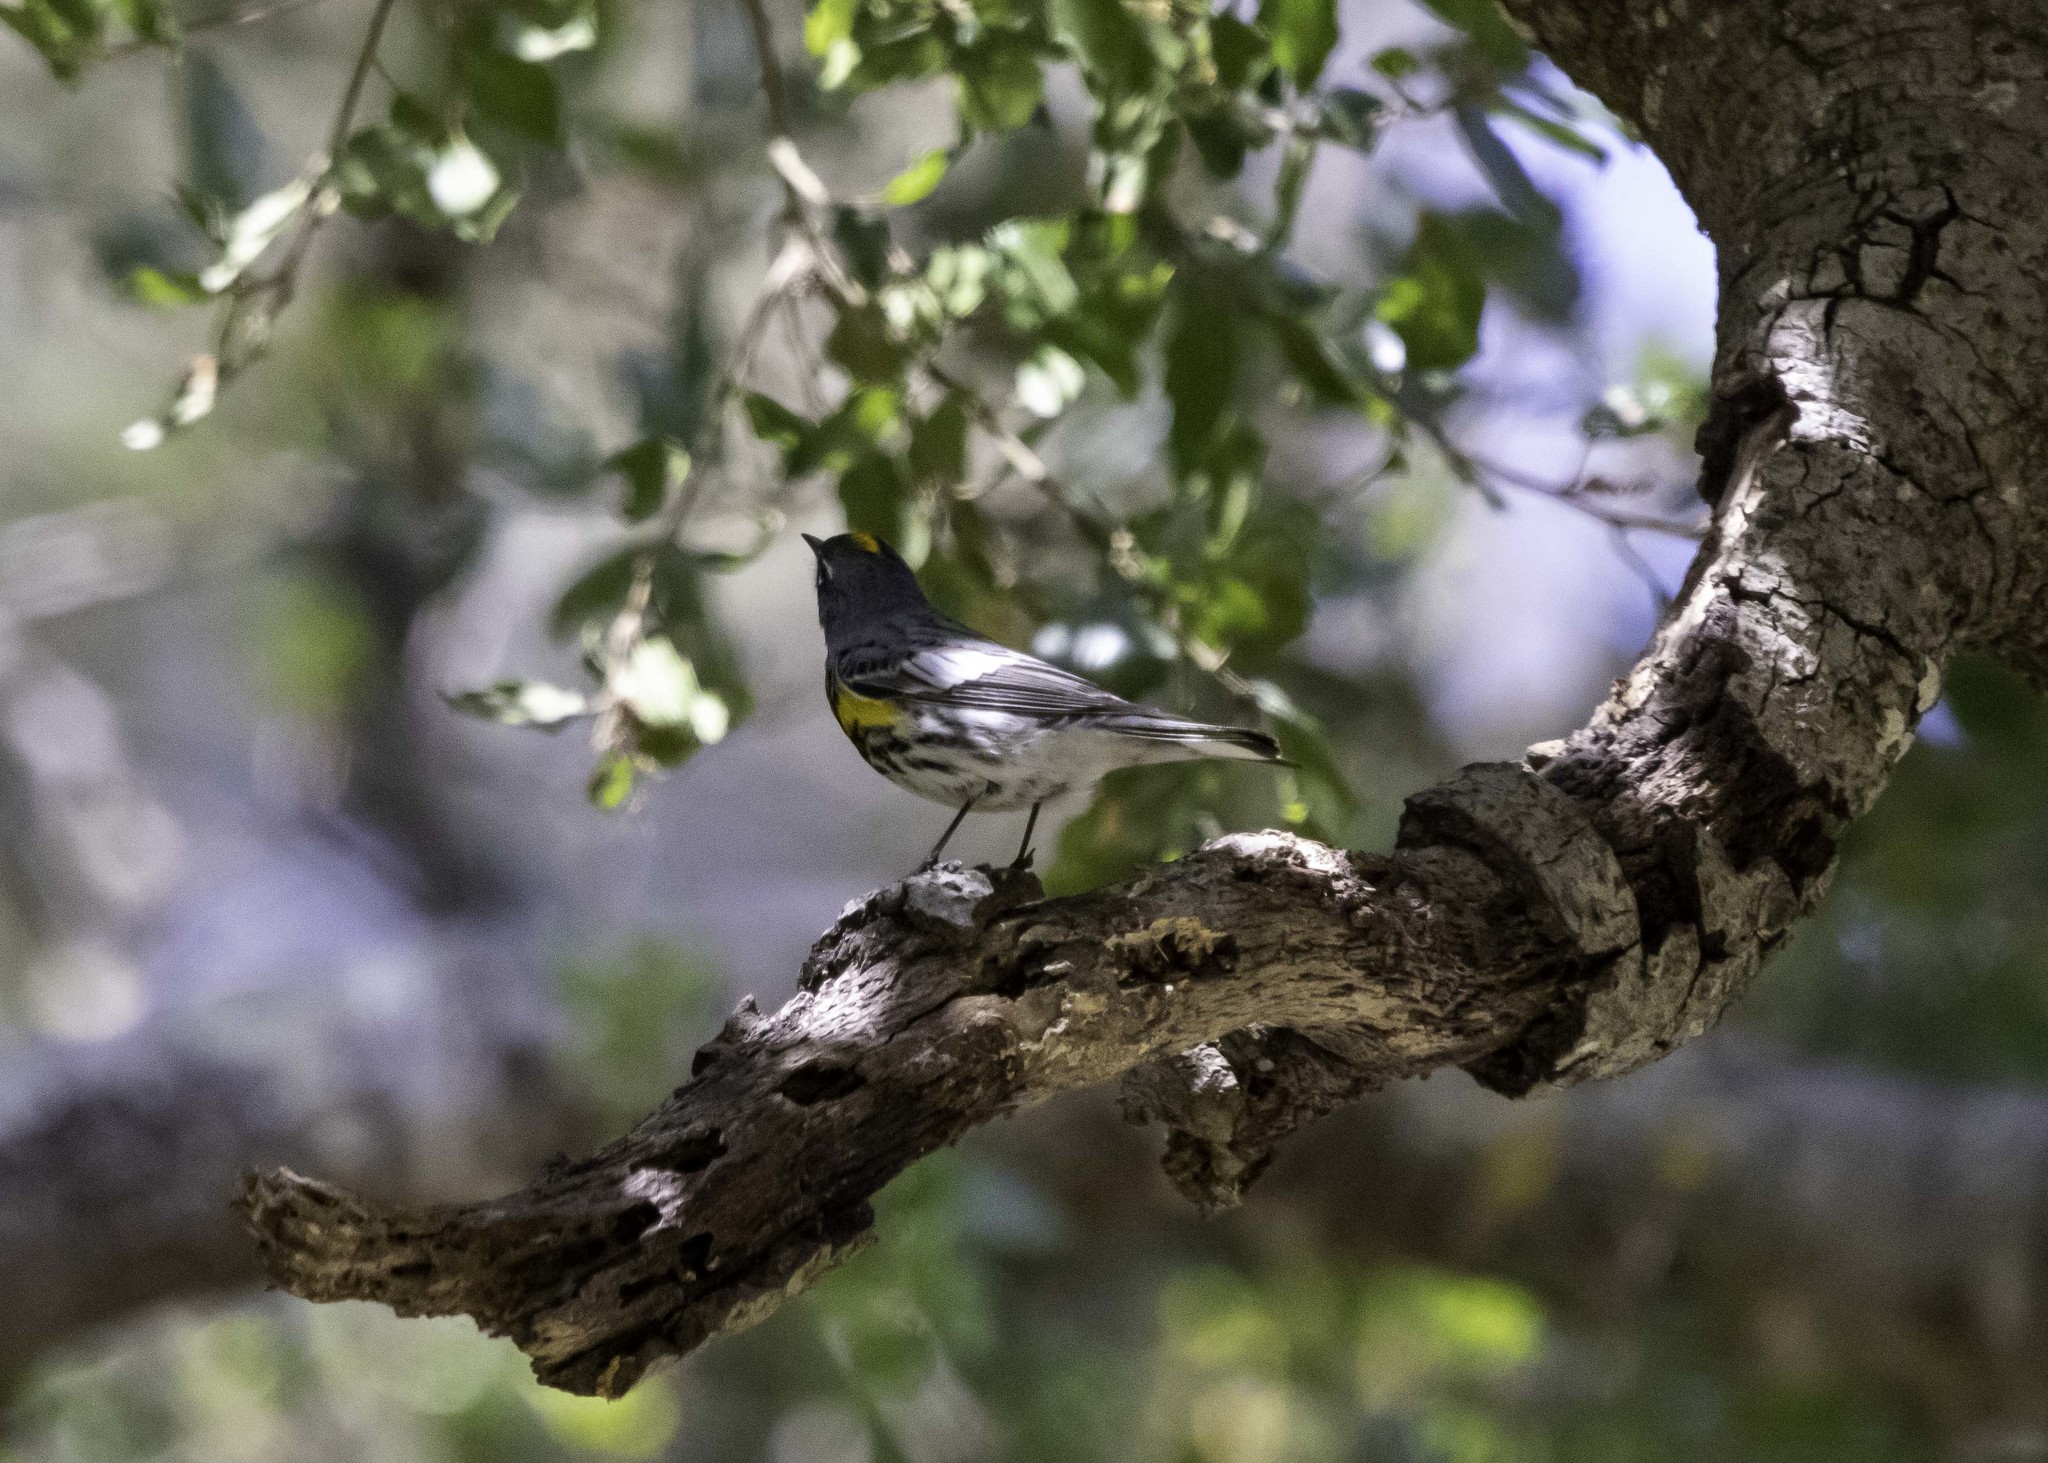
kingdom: Animalia
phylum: Chordata
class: Aves
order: Passeriformes
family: Parulidae
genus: Setophaga
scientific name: Setophaga auduboni
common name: Audubon's warbler
